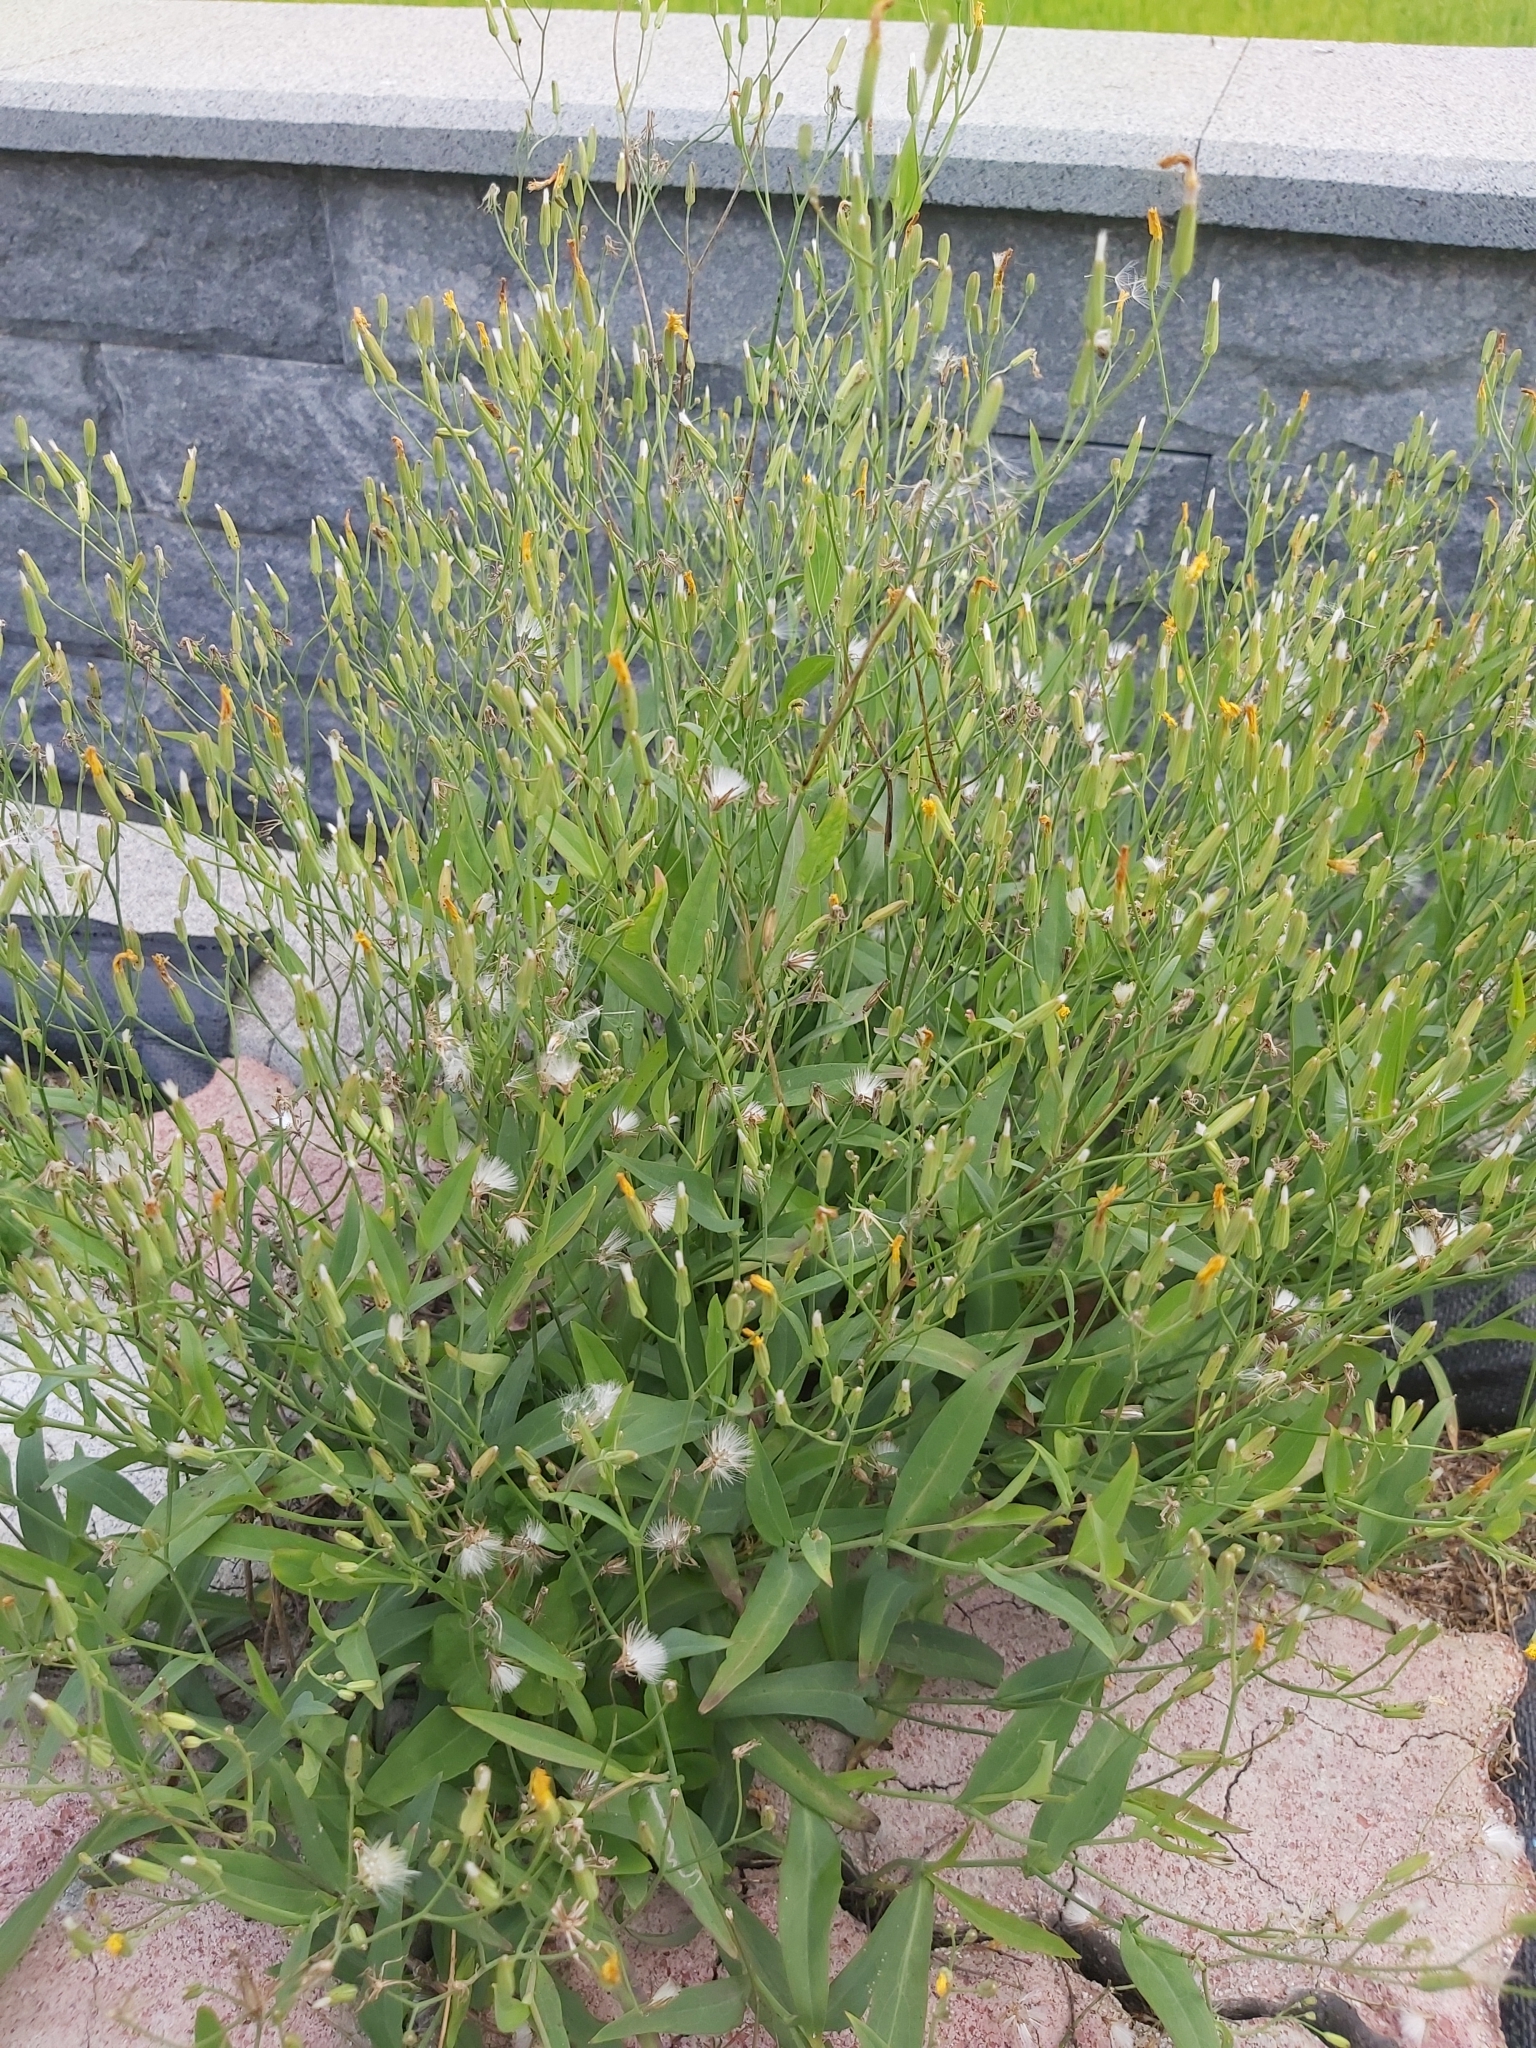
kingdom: Plantae
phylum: Tracheophyta
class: Magnoliopsida
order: Asterales
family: Asteraceae
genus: Ixeris
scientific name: Ixeris chinensis
